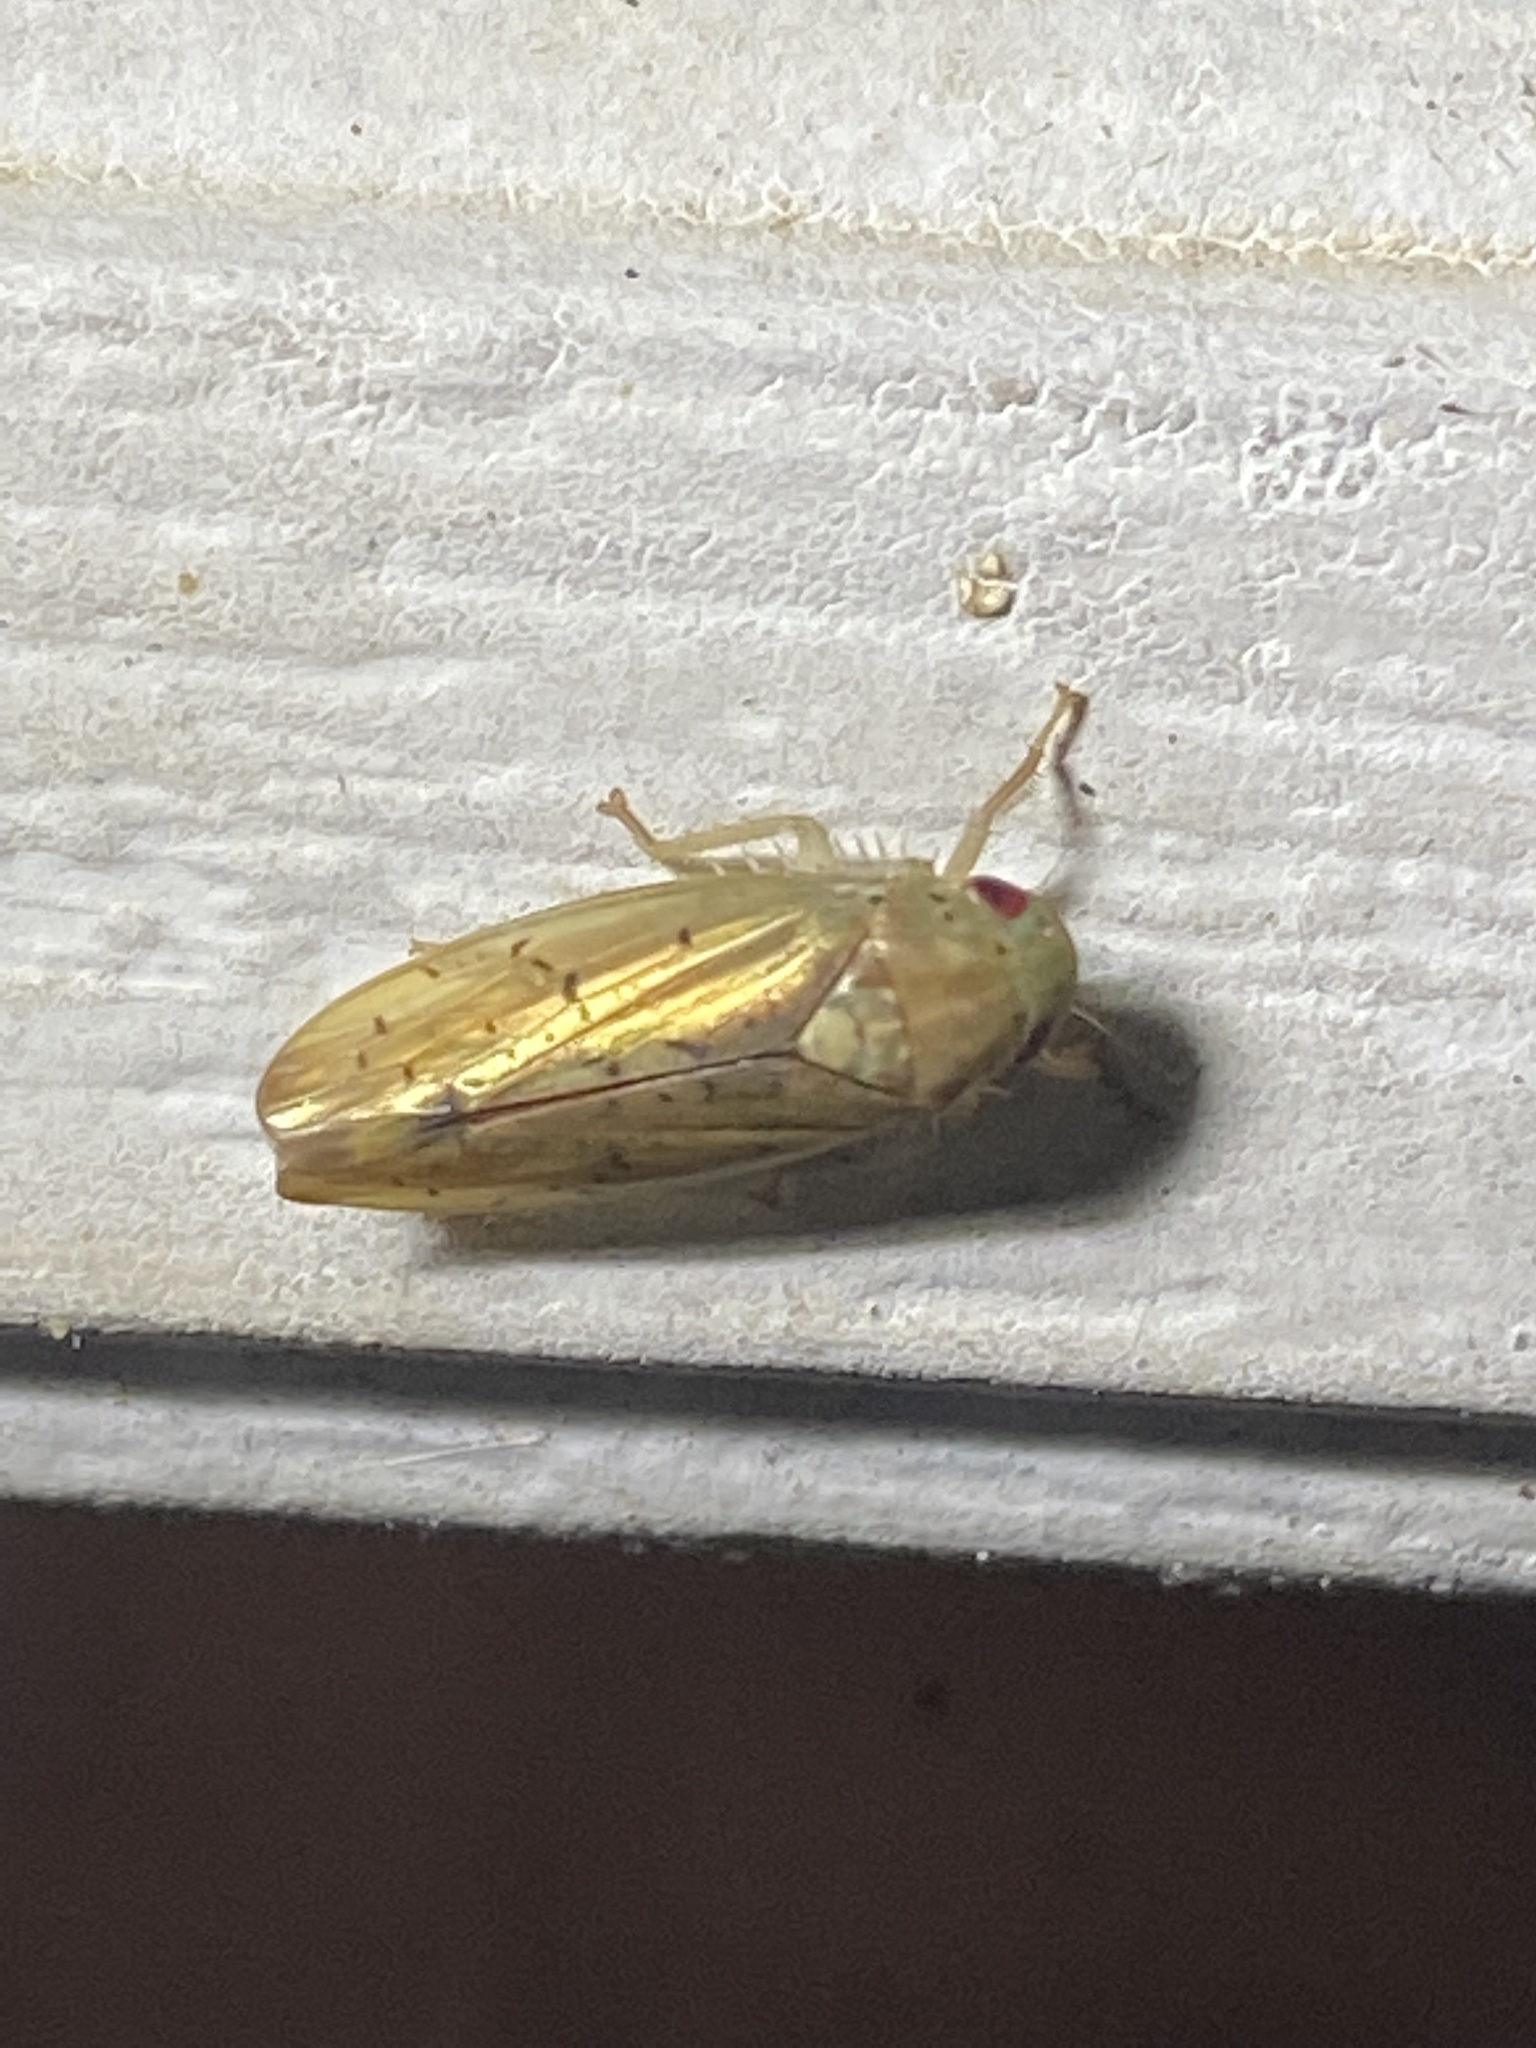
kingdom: Animalia
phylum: Arthropoda
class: Insecta
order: Hemiptera
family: Cicadellidae
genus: Ponana
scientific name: Ponana quadralaba
